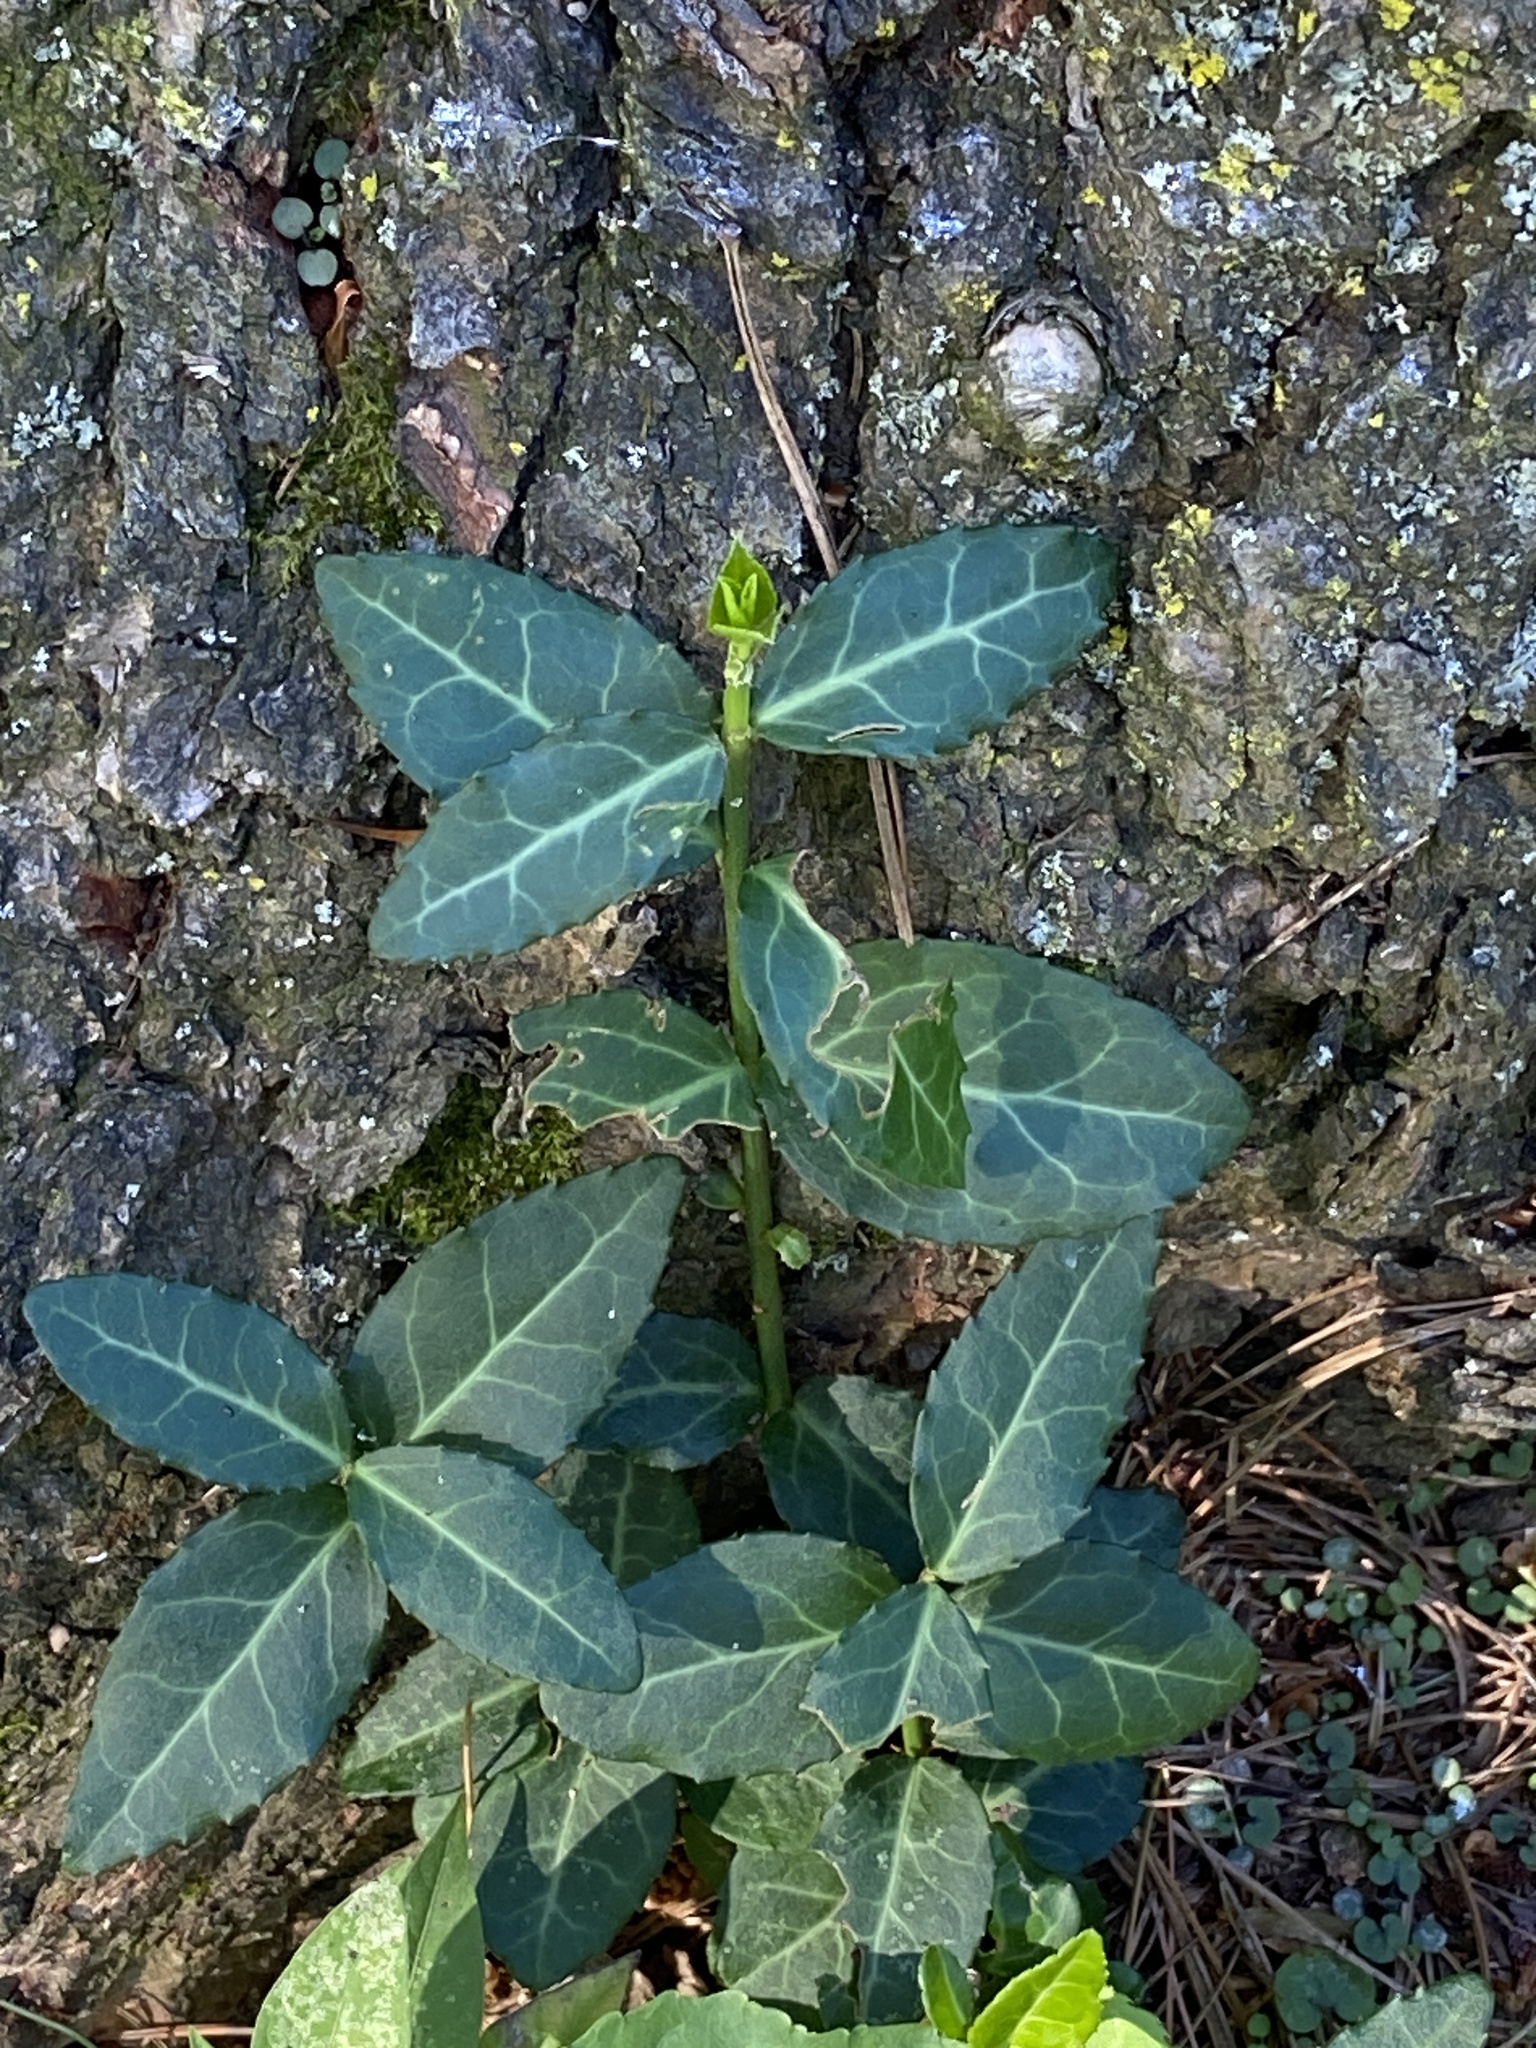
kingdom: Plantae
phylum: Tracheophyta
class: Magnoliopsida
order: Celastrales
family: Celastraceae
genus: Euonymus
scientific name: Euonymus fortunei
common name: Climbing euonymus
